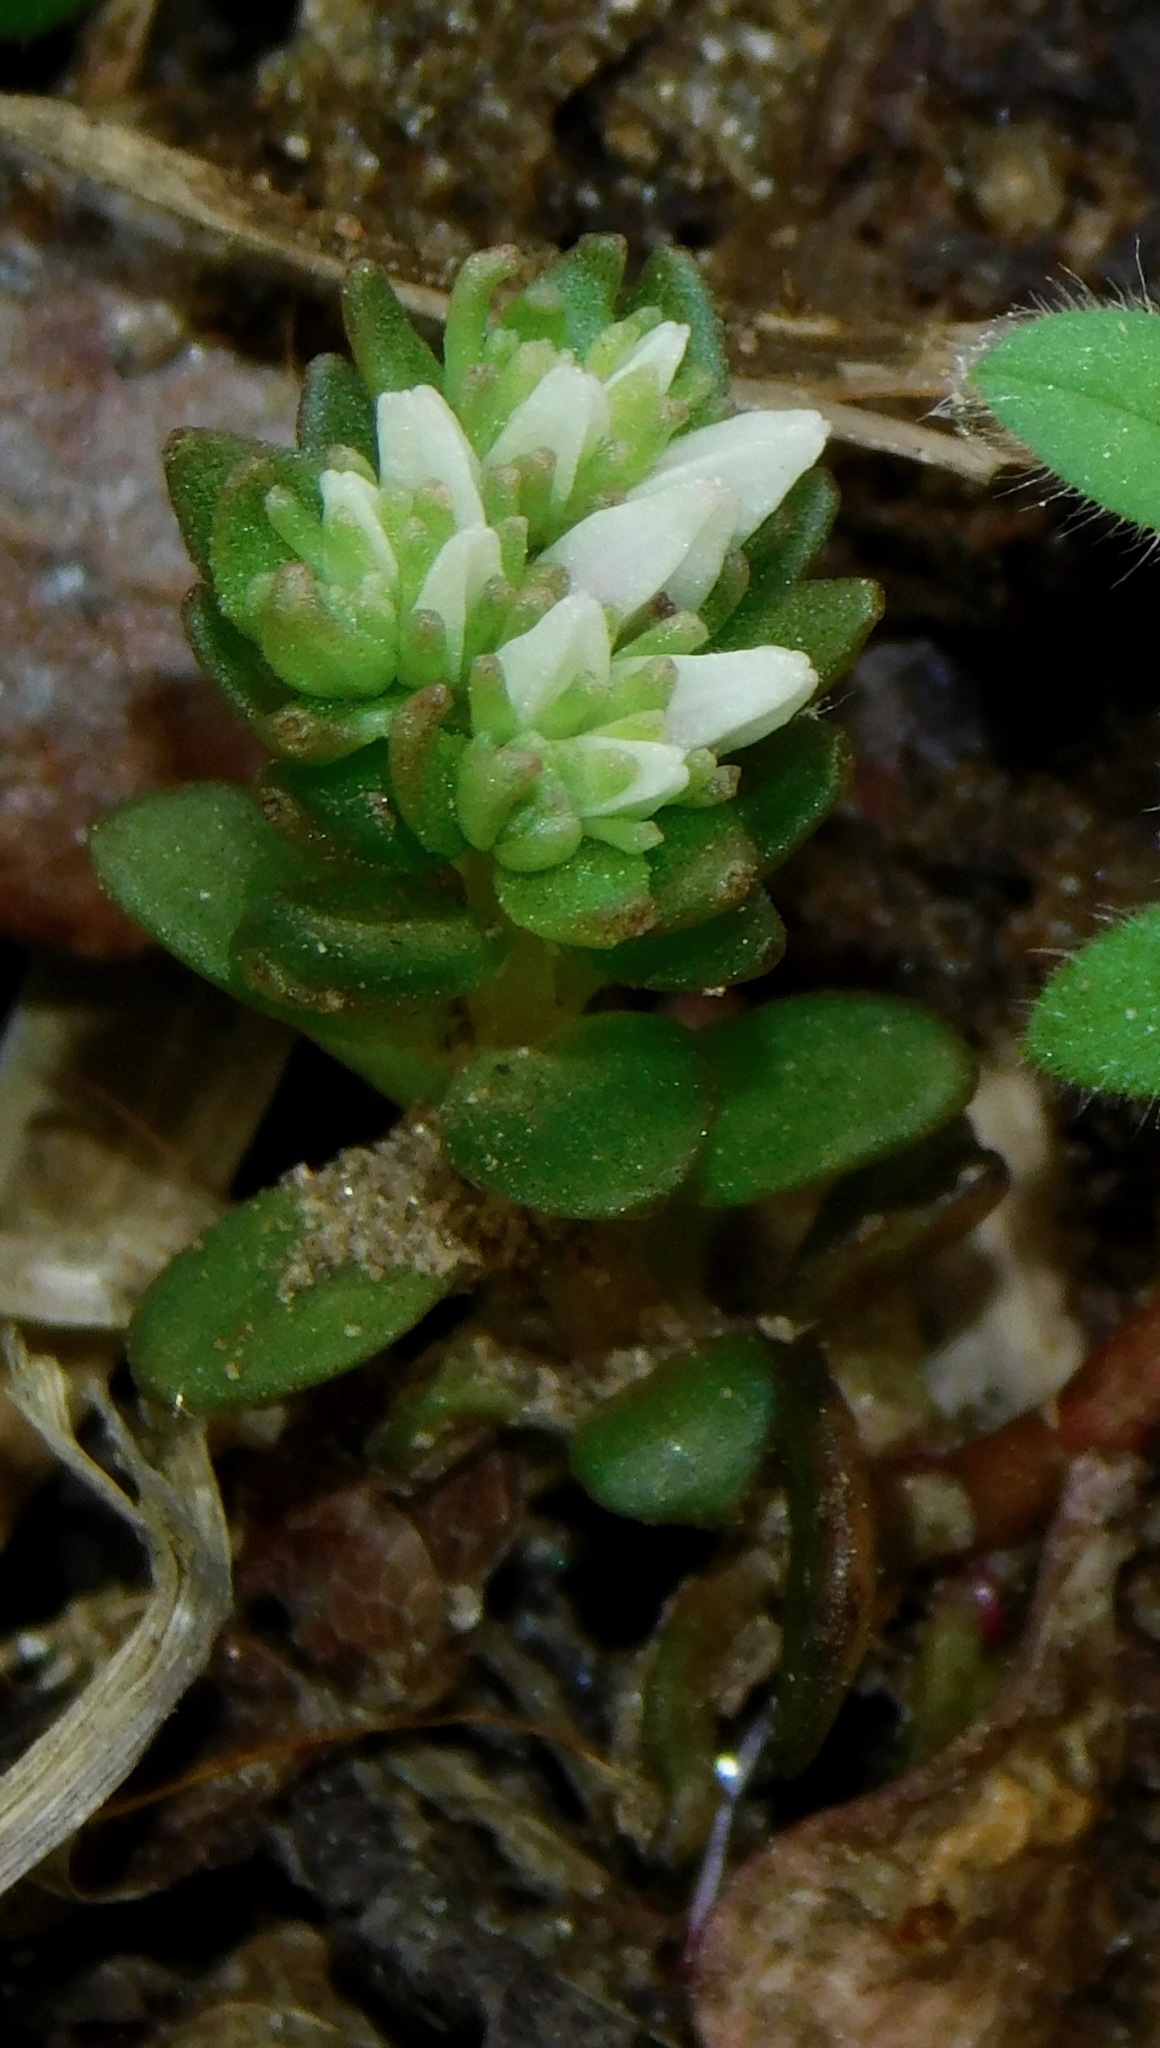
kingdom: Plantae
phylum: Tracheophyta
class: Magnoliopsida
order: Saxifragales
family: Crassulaceae
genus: Sedum
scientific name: Sedum ternatum
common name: Wild stonecrop
